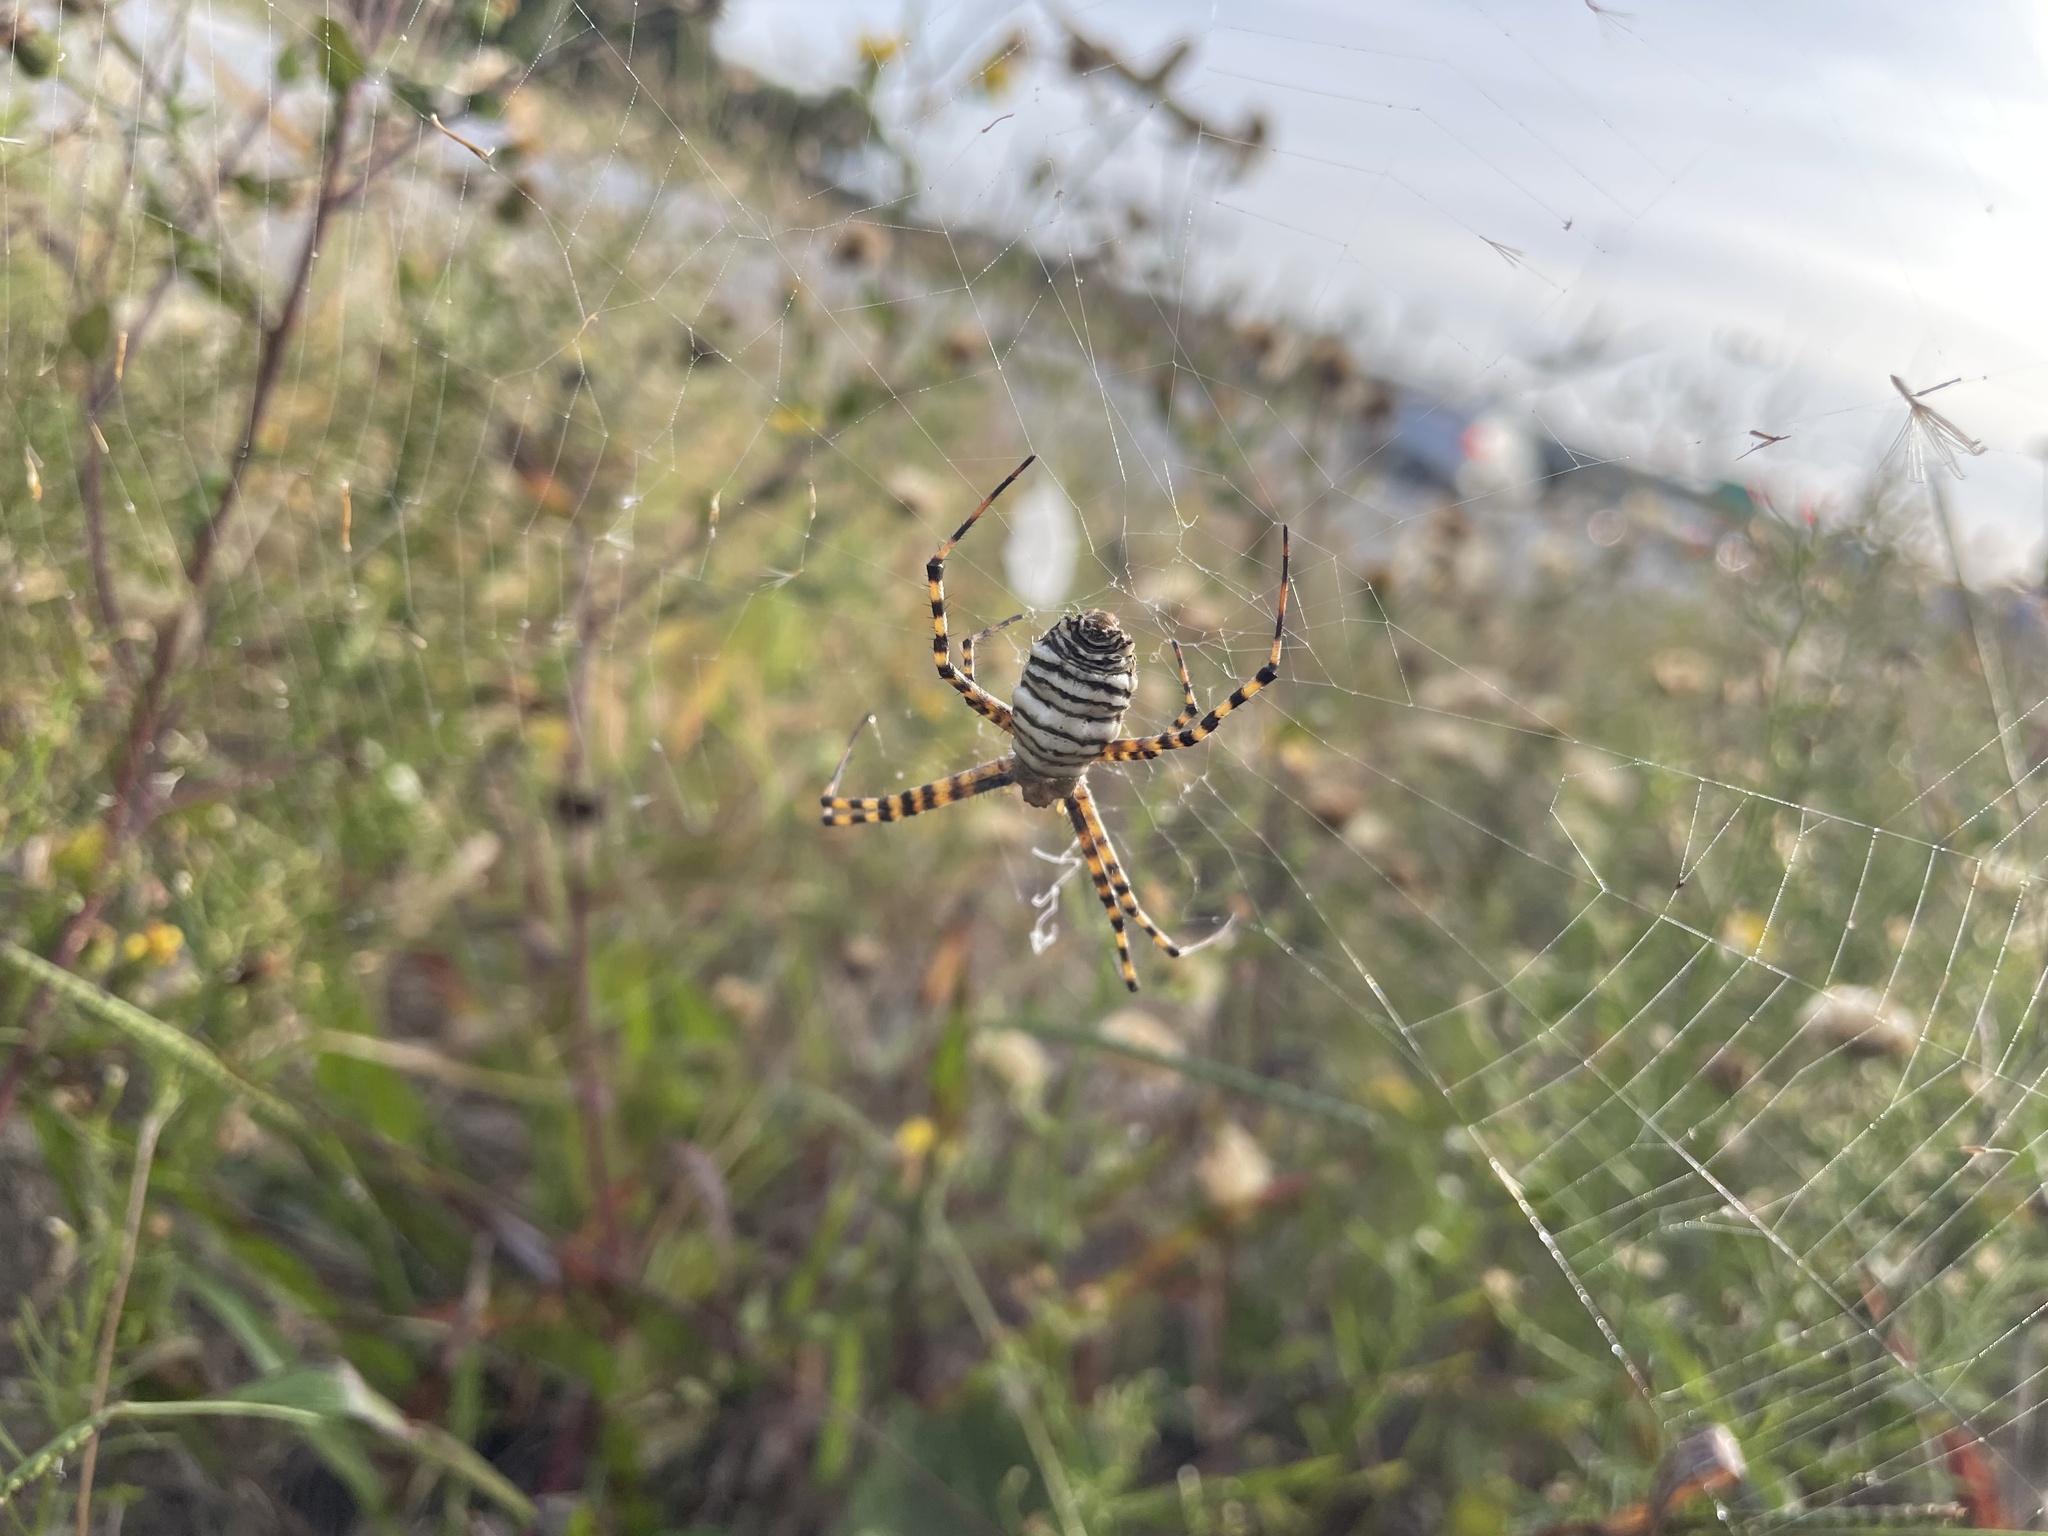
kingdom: Animalia
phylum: Arthropoda
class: Arachnida
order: Araneae
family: Araneidae
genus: Argiope
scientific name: Argiope trifasciata
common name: Banded garden spider
